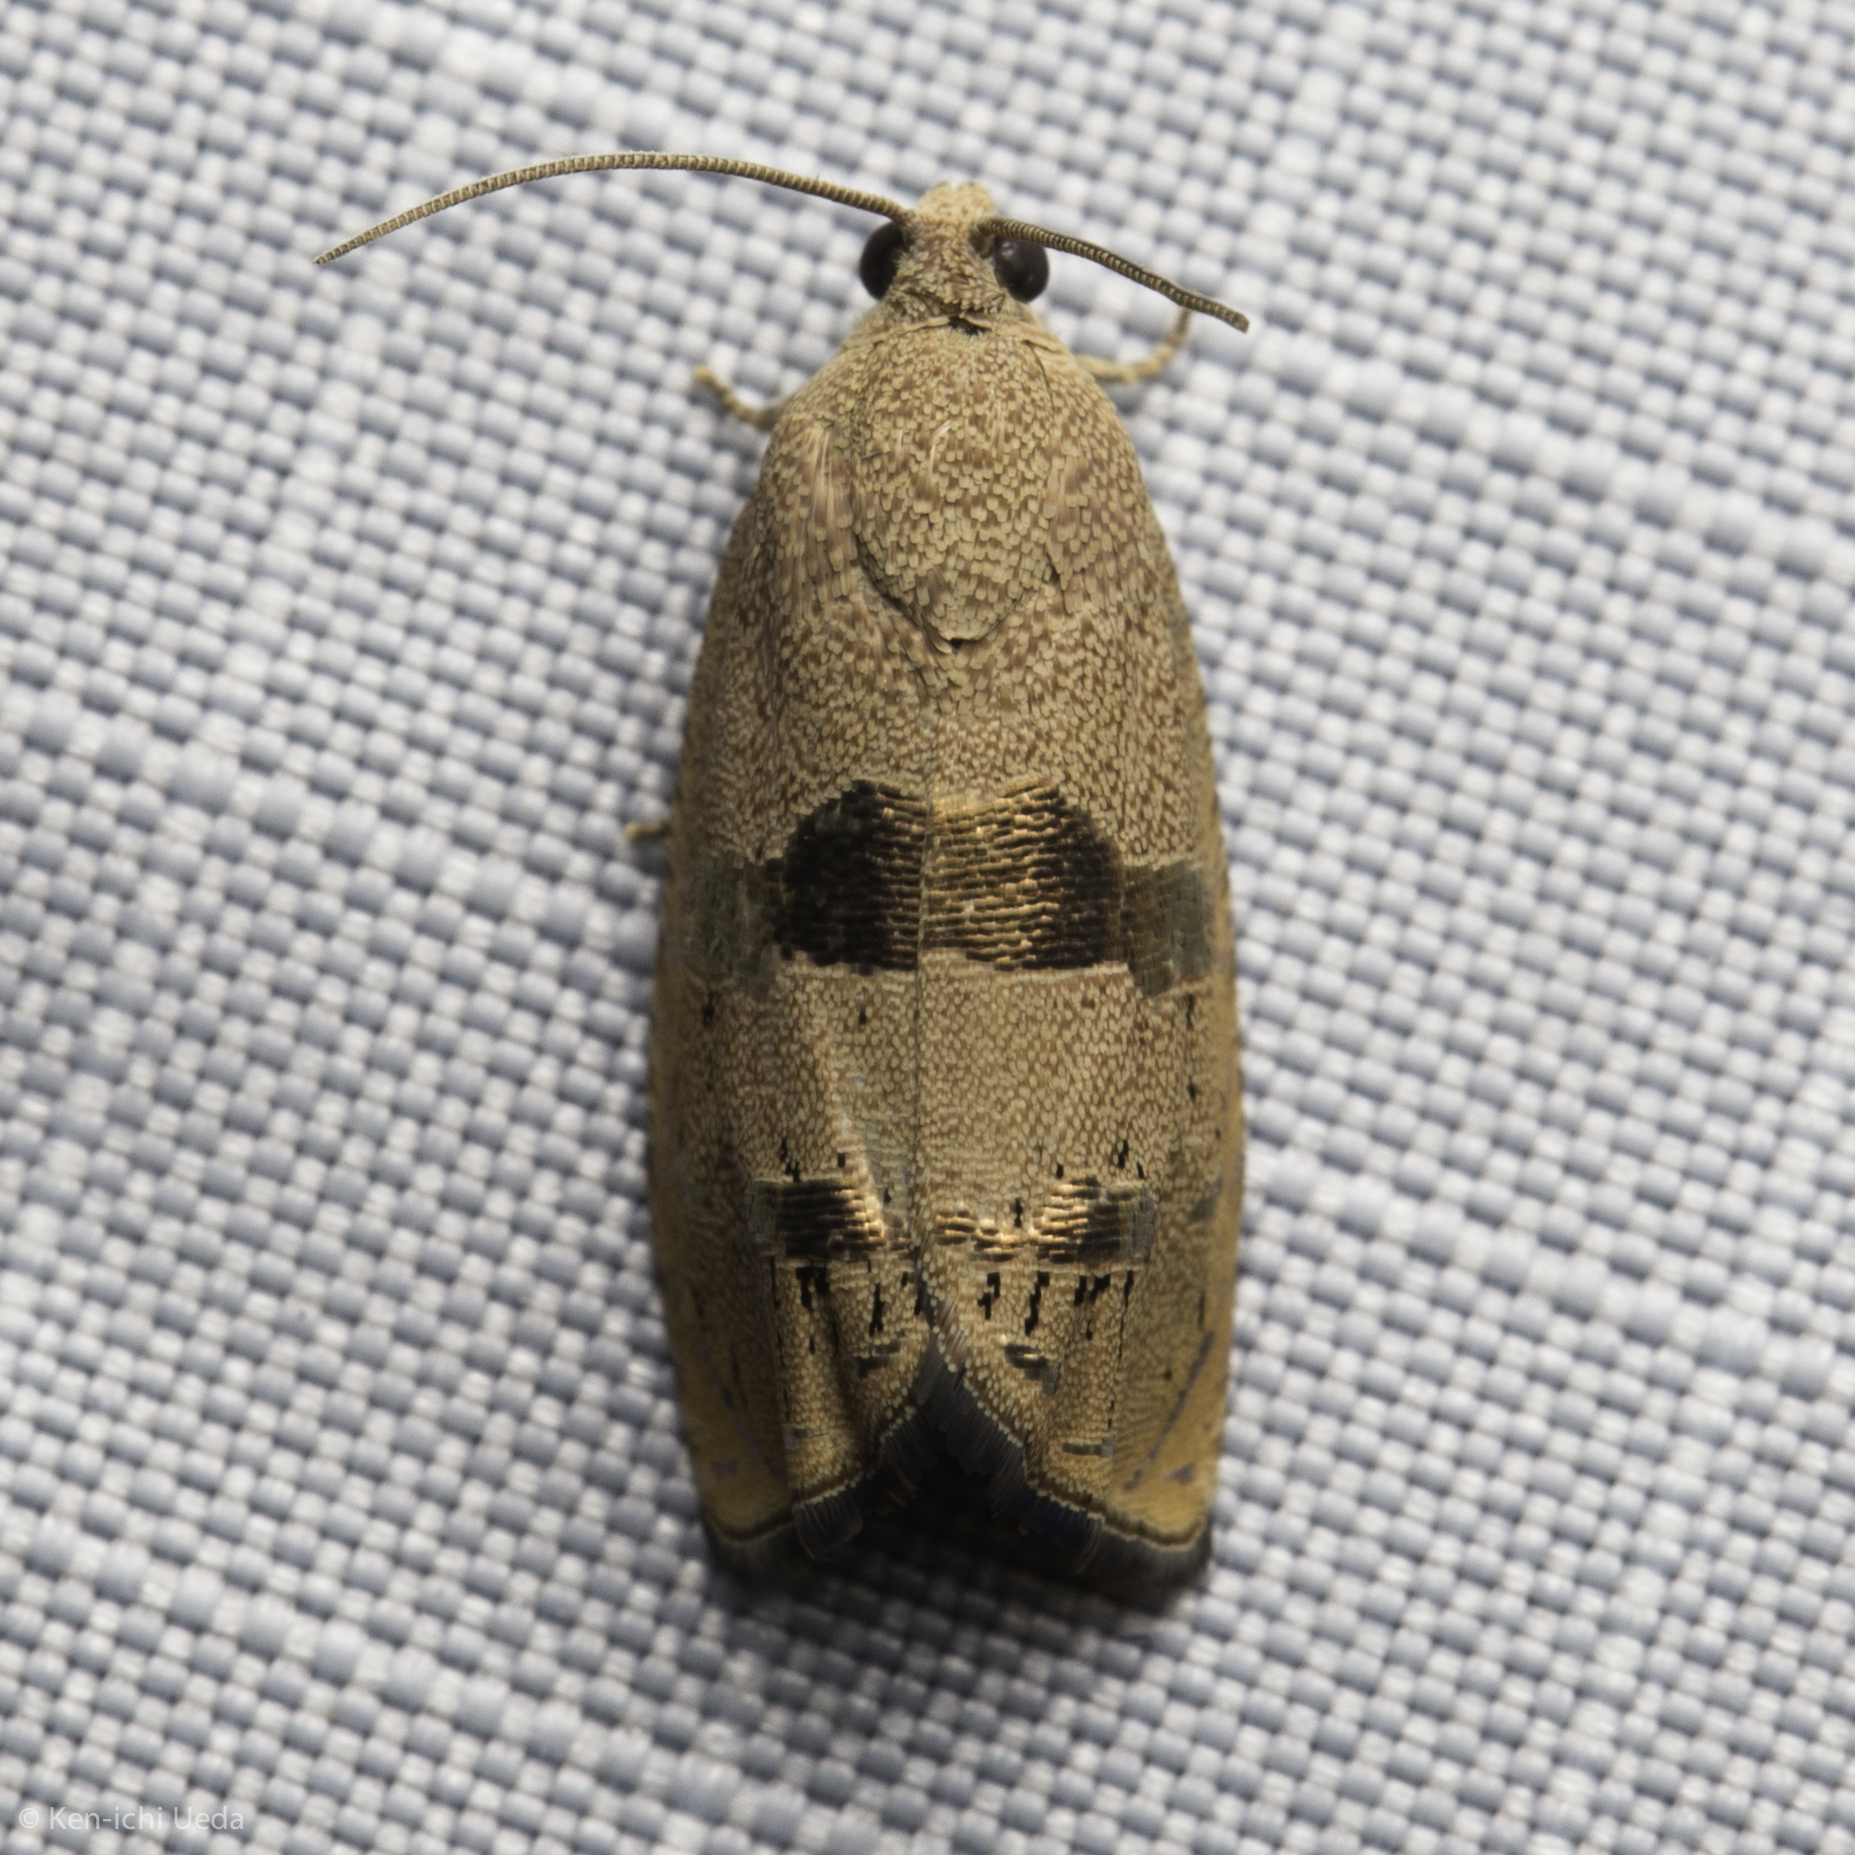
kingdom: Animalia
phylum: Arthropoda
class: Insecta
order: Lepidoptera
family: Tortricidae
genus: Cydia
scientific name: Cydia latiferreana
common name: Filbertworm moth
